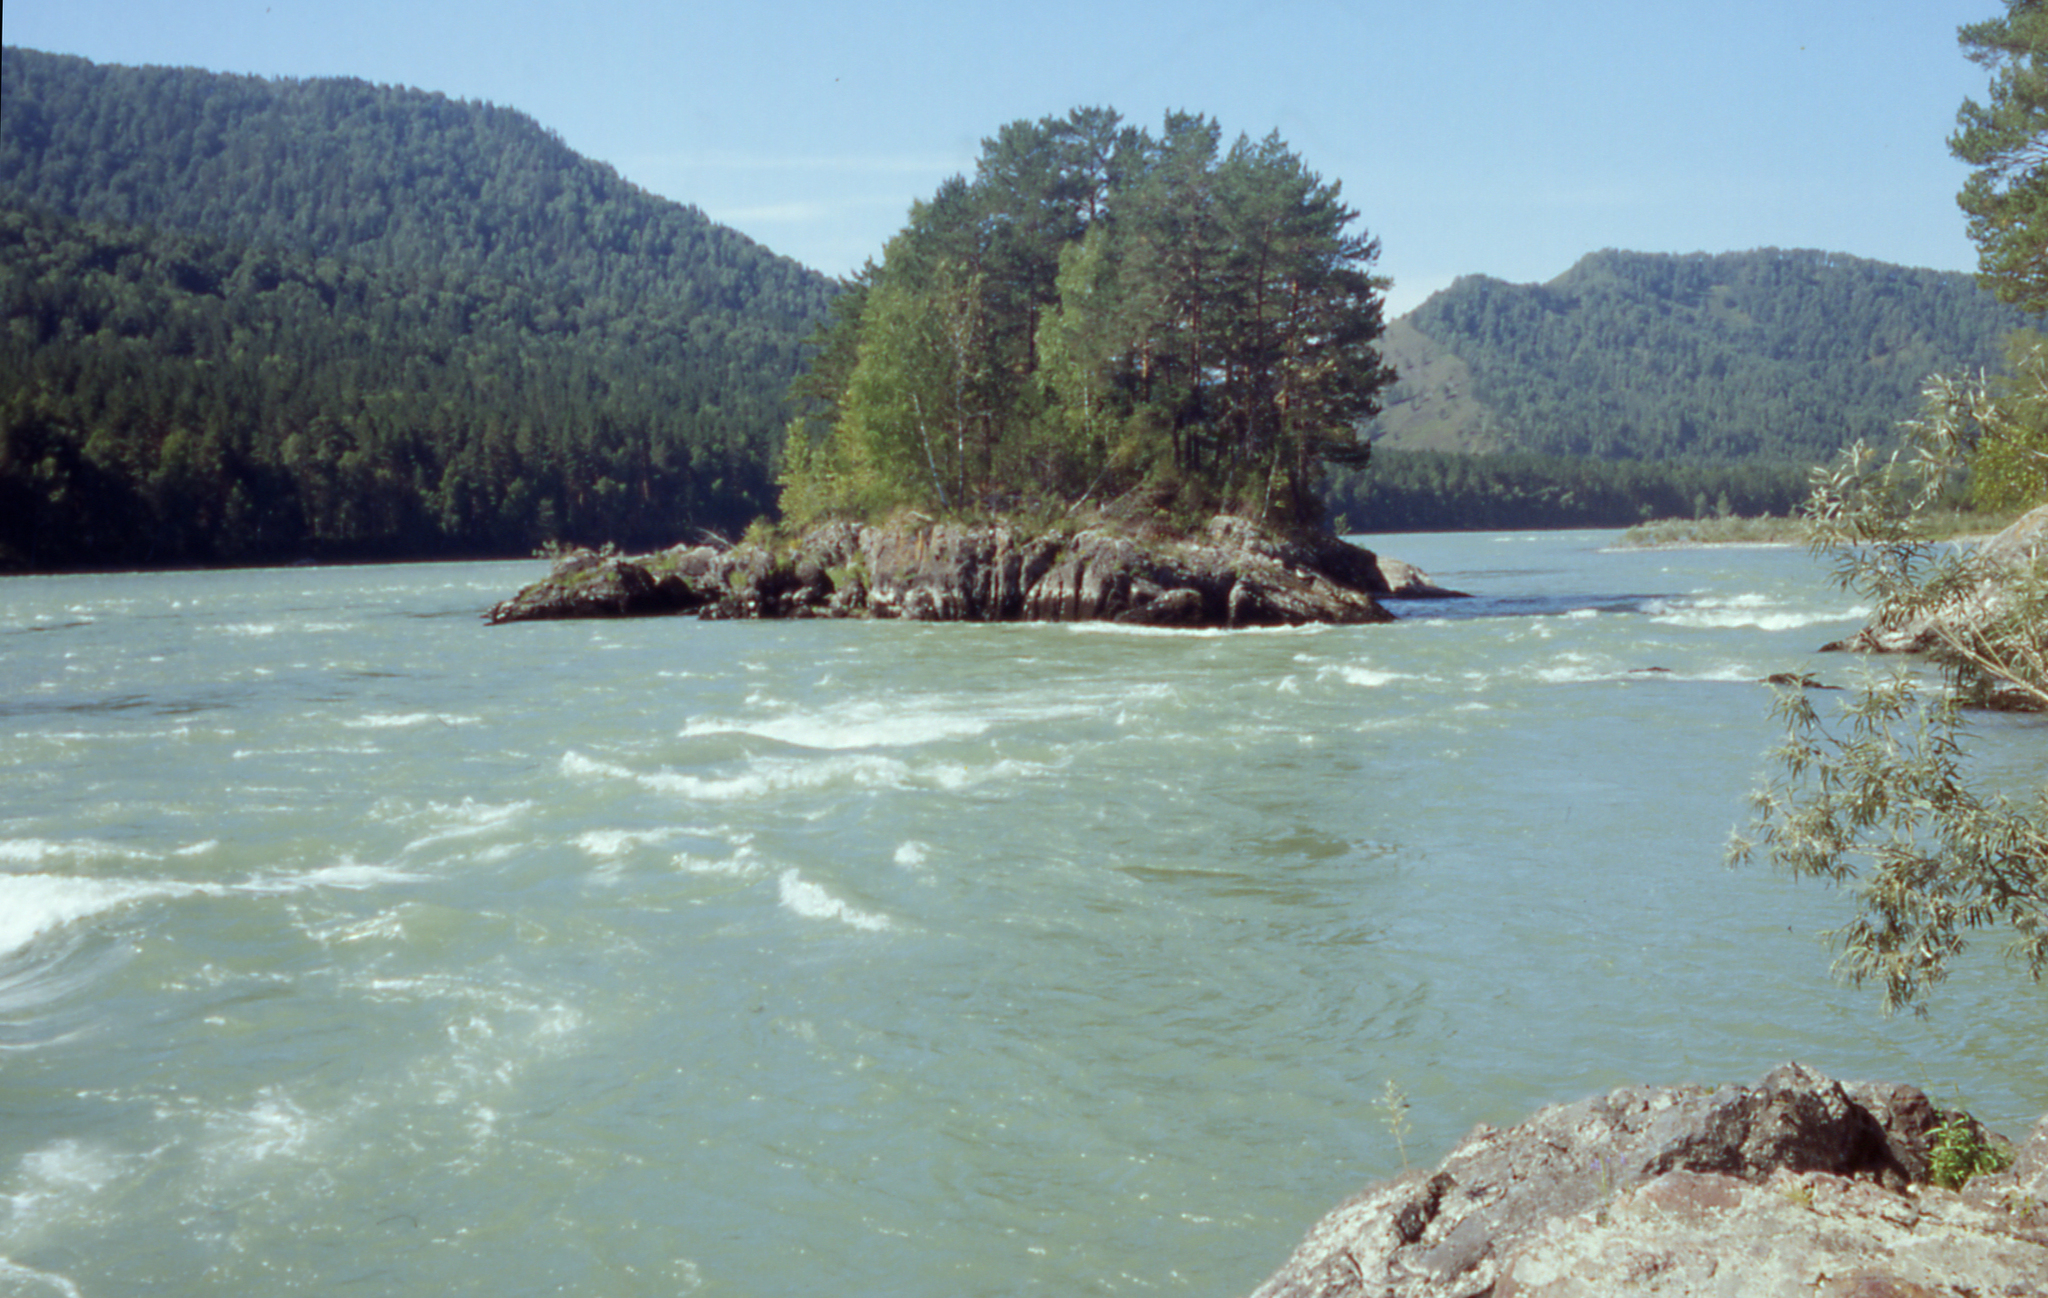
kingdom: Plantae
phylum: Tracheophyta
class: Pinopsida
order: Pinales
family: Pinaceae
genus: Pinus
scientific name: Pinus sylvestris
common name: Scots pine
